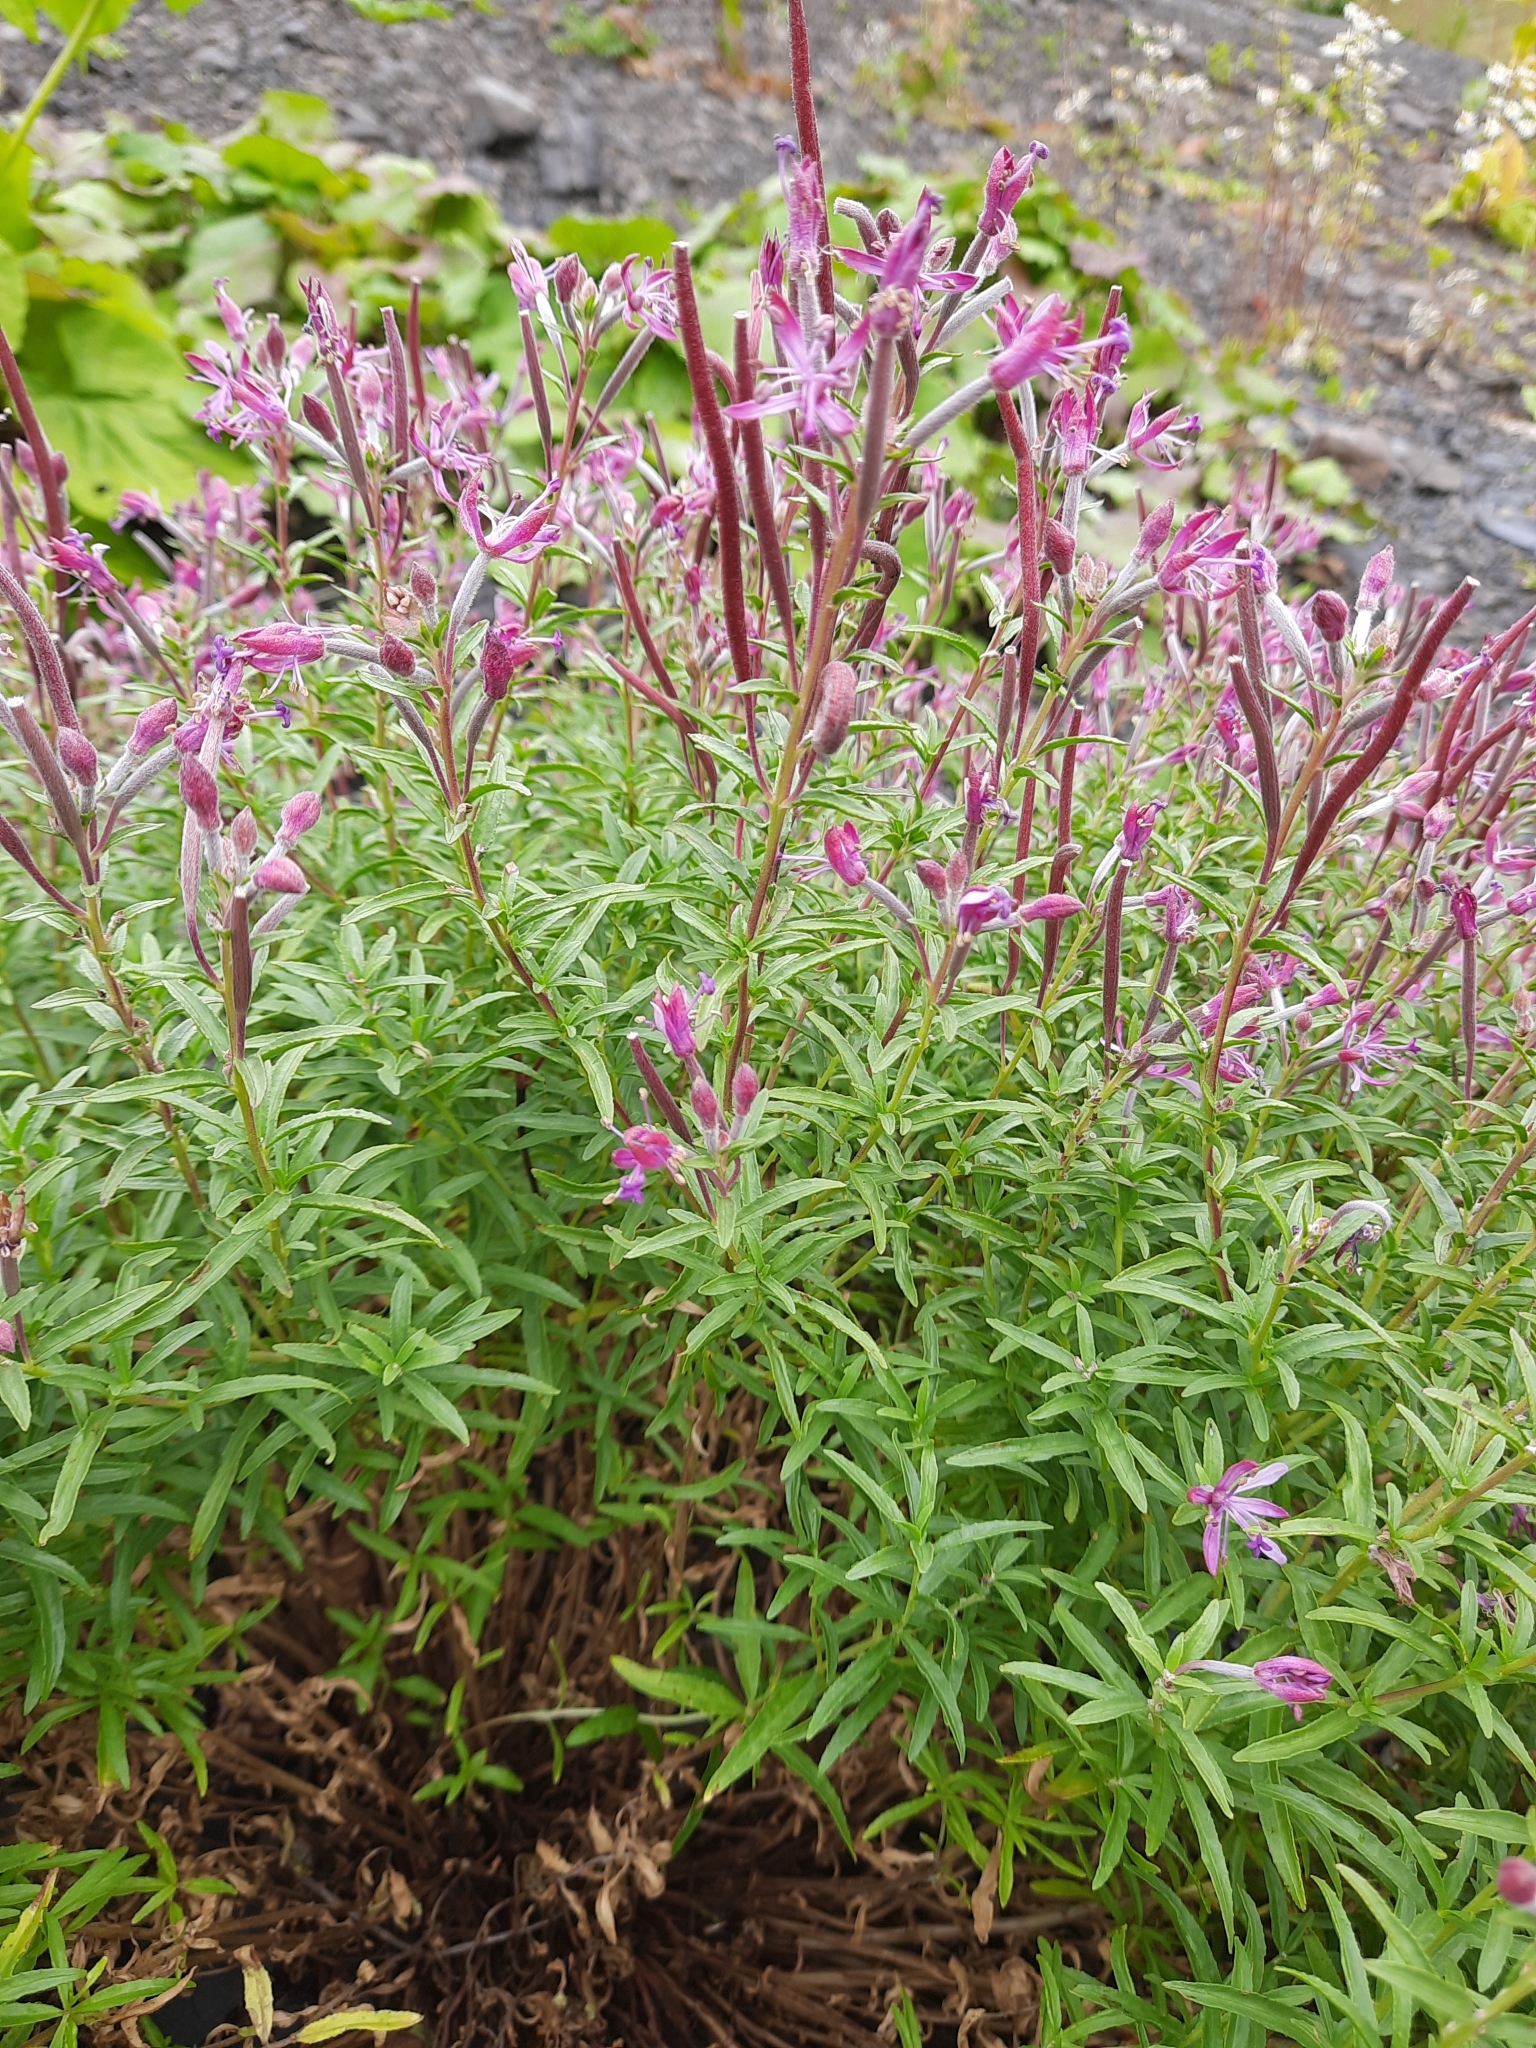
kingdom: Plantae
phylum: Tracheophyta
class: Magnoliopsida
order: Myrtales
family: Onagraceae
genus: Chamaenerion
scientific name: Chamaenerion colchicum
